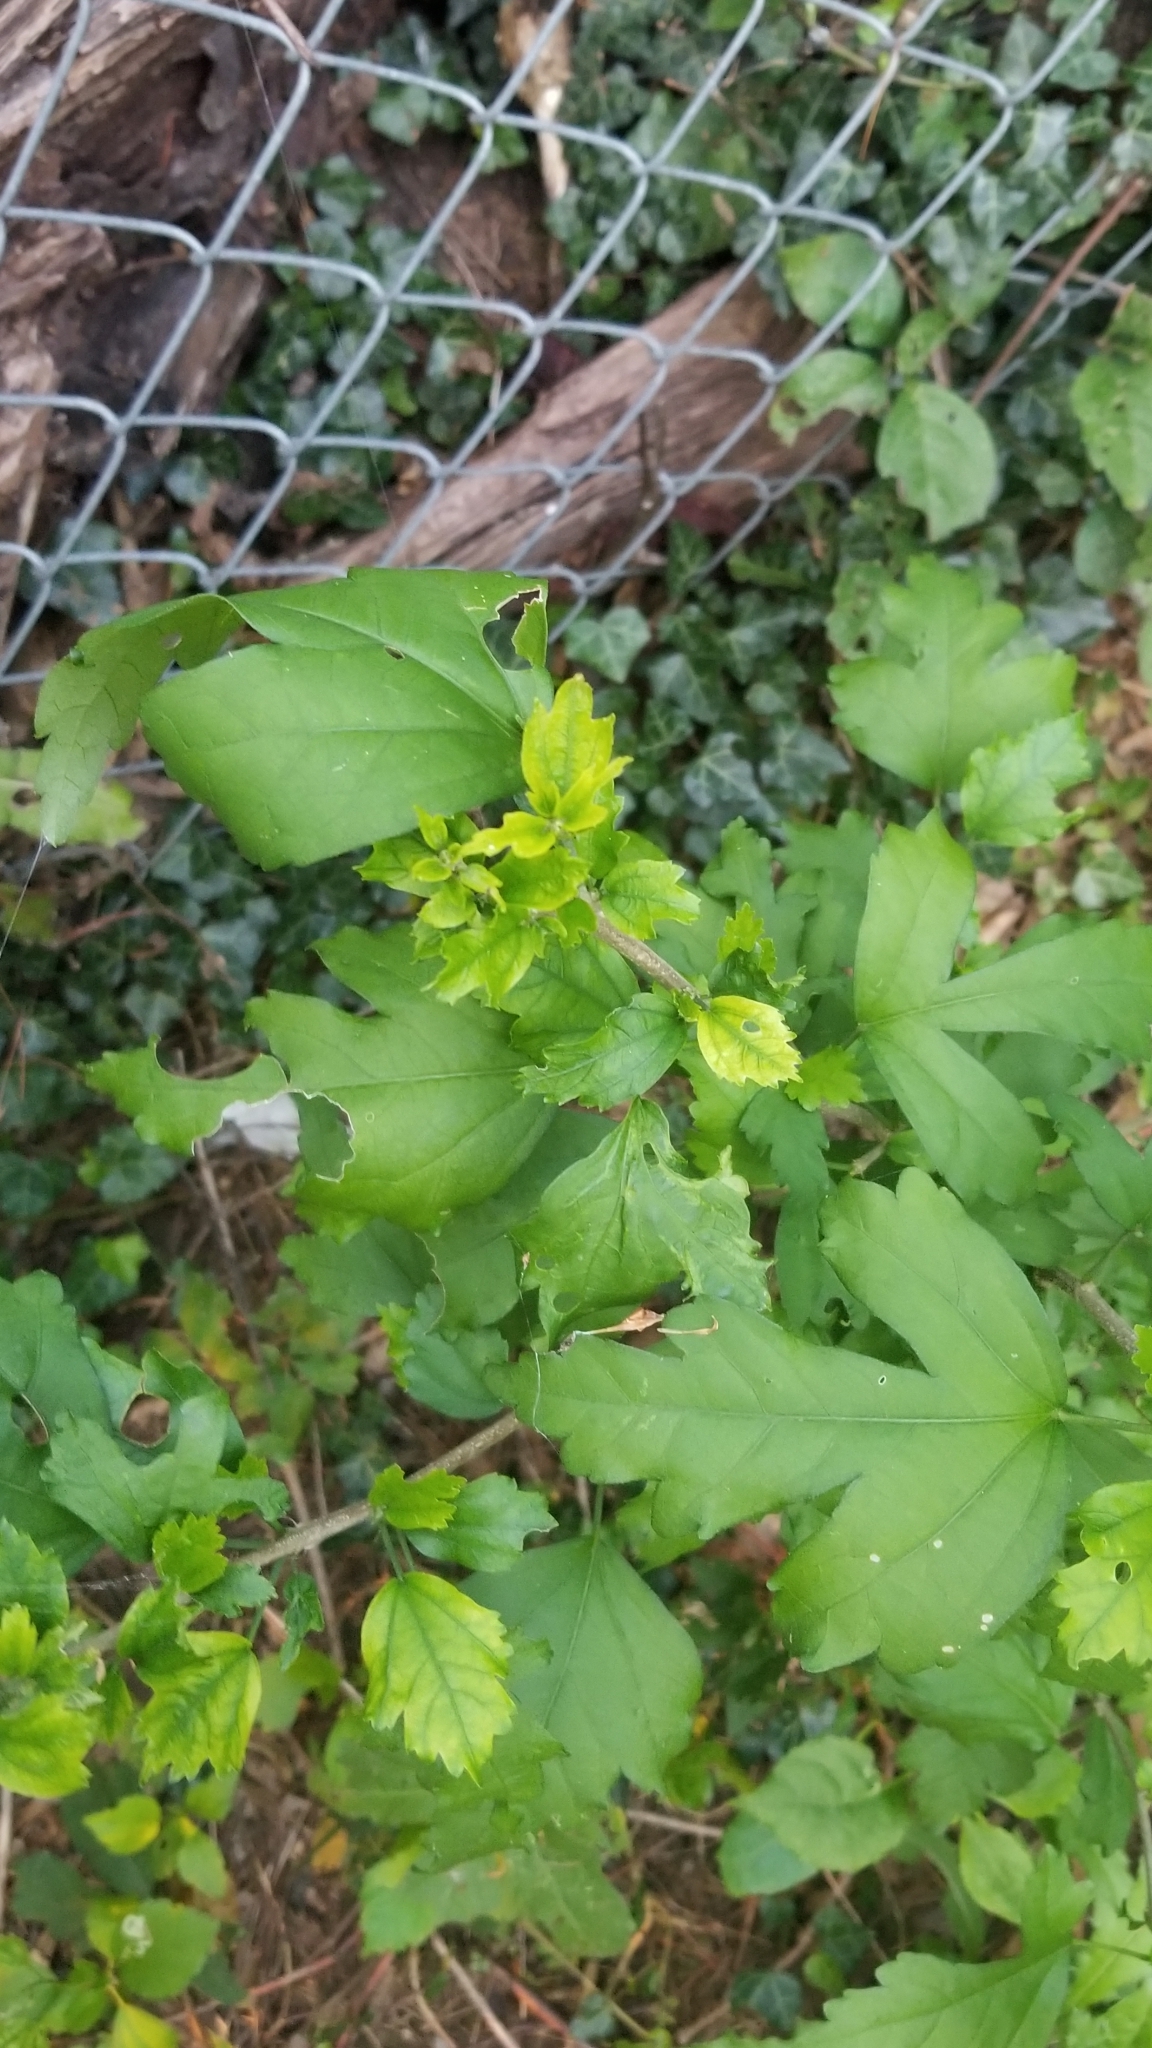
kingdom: Plantae
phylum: Tracheophyta
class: Magnoliopsida
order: Malvales
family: Malvaceae
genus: Hibiscus
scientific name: Hibiscus syriacus
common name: Syrian ketmia
